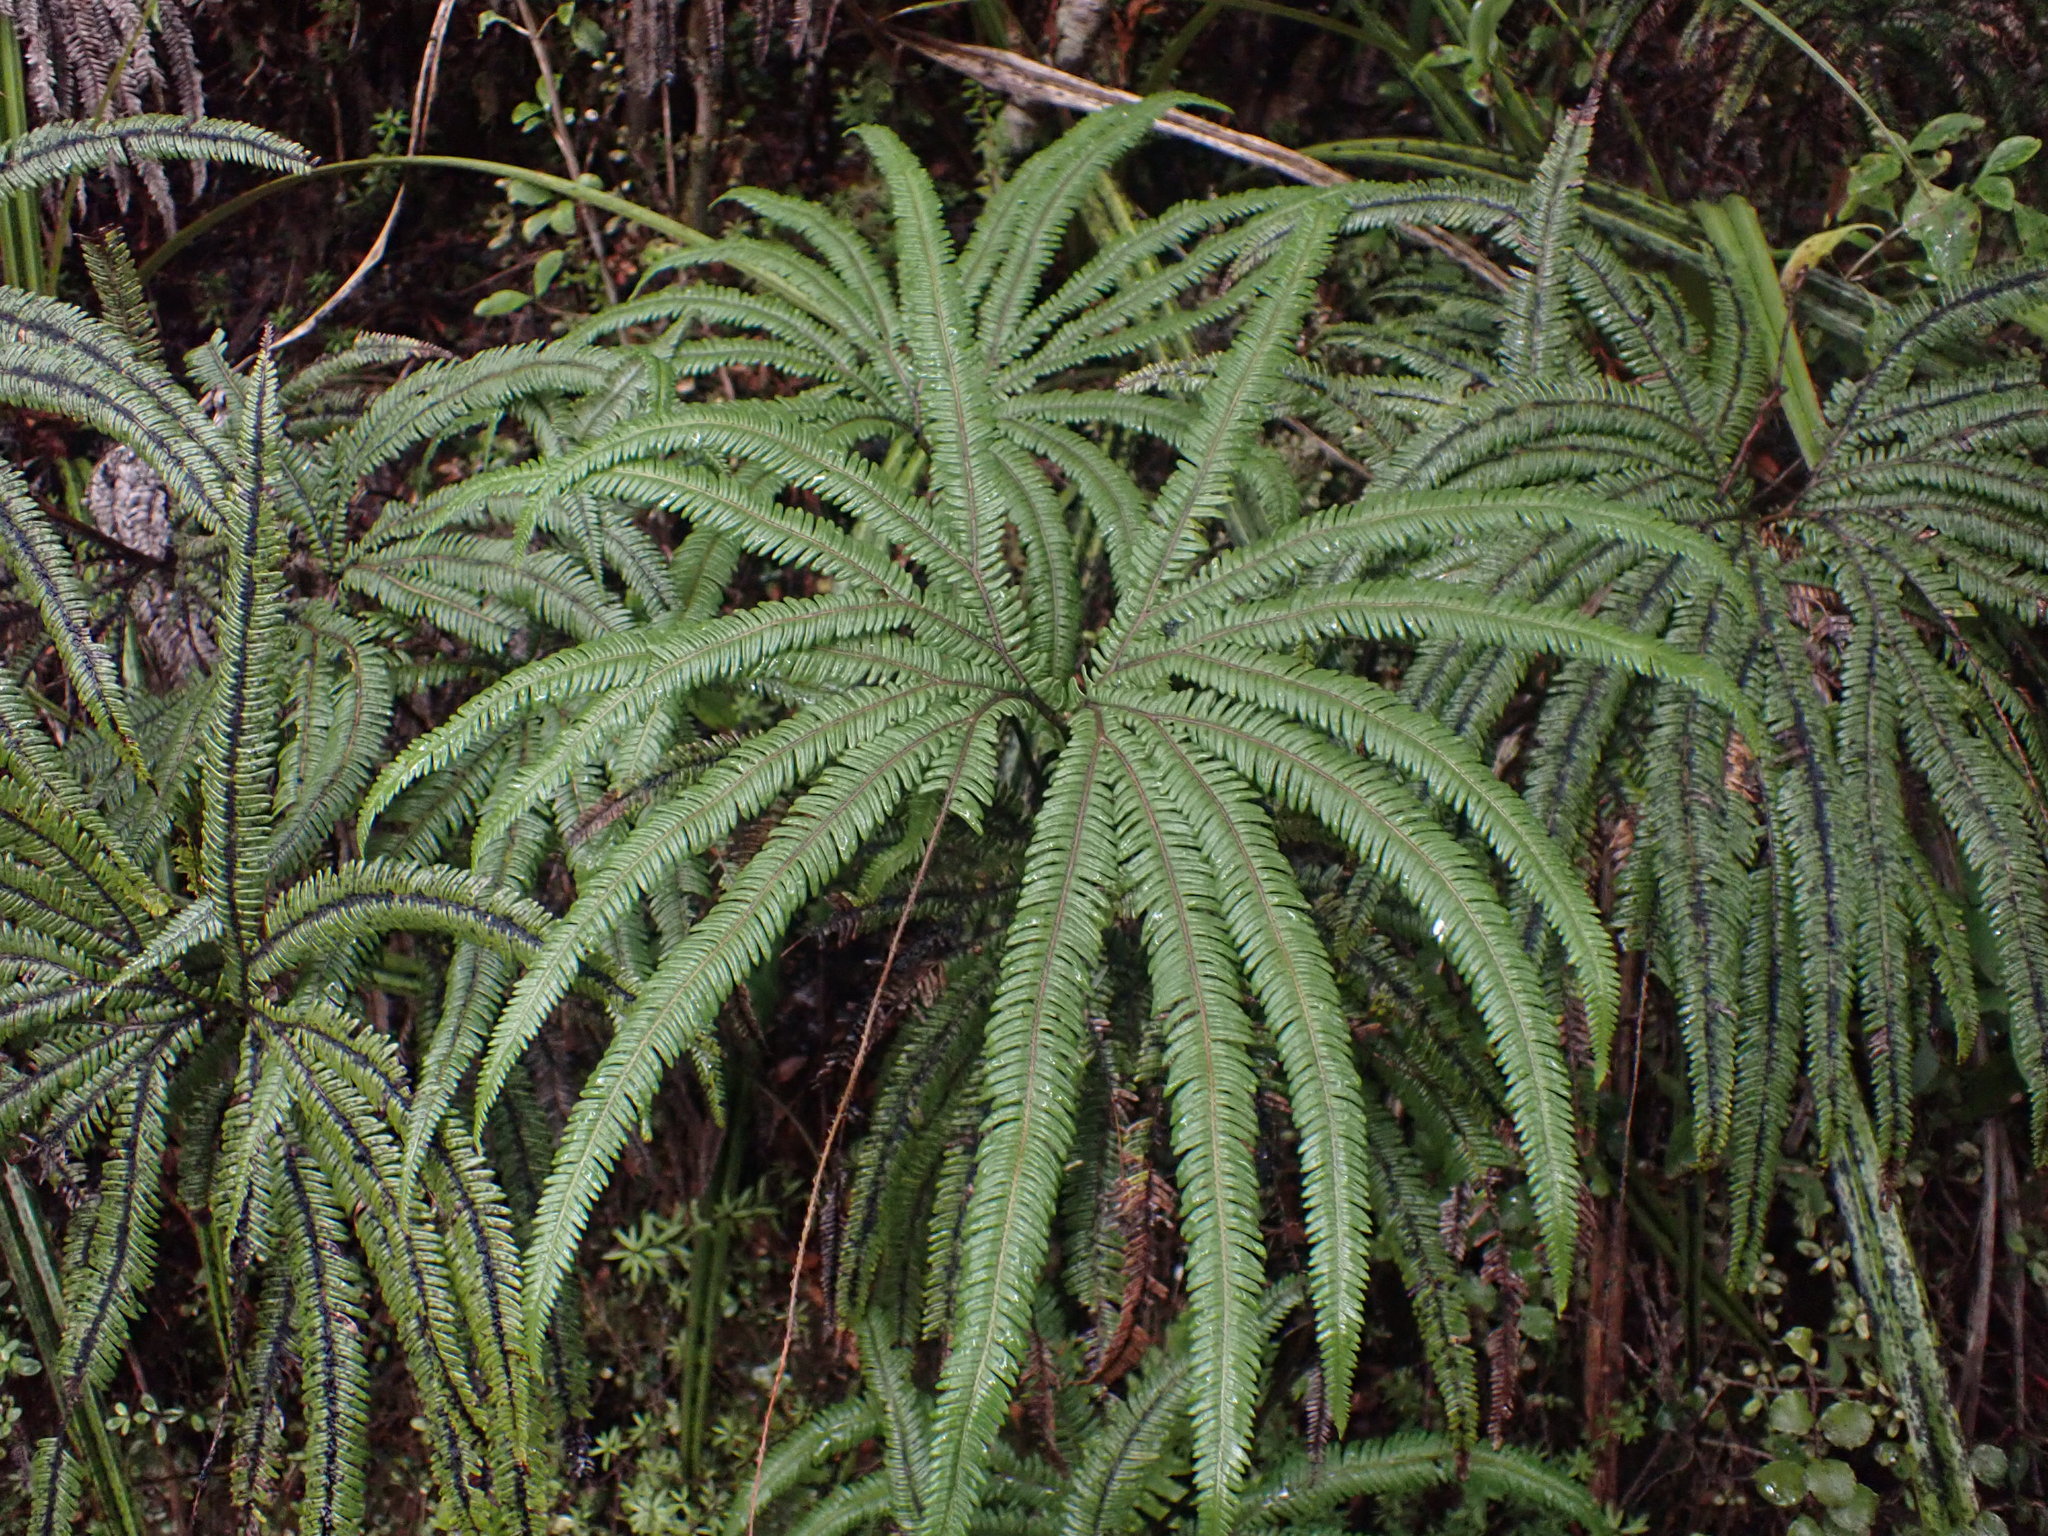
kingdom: Plantae
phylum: Tracheophyta
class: Polypodiopsida
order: Gleicheniales
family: Gleicheniaceae
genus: Sticherus
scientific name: Sticherus cunninghamii
